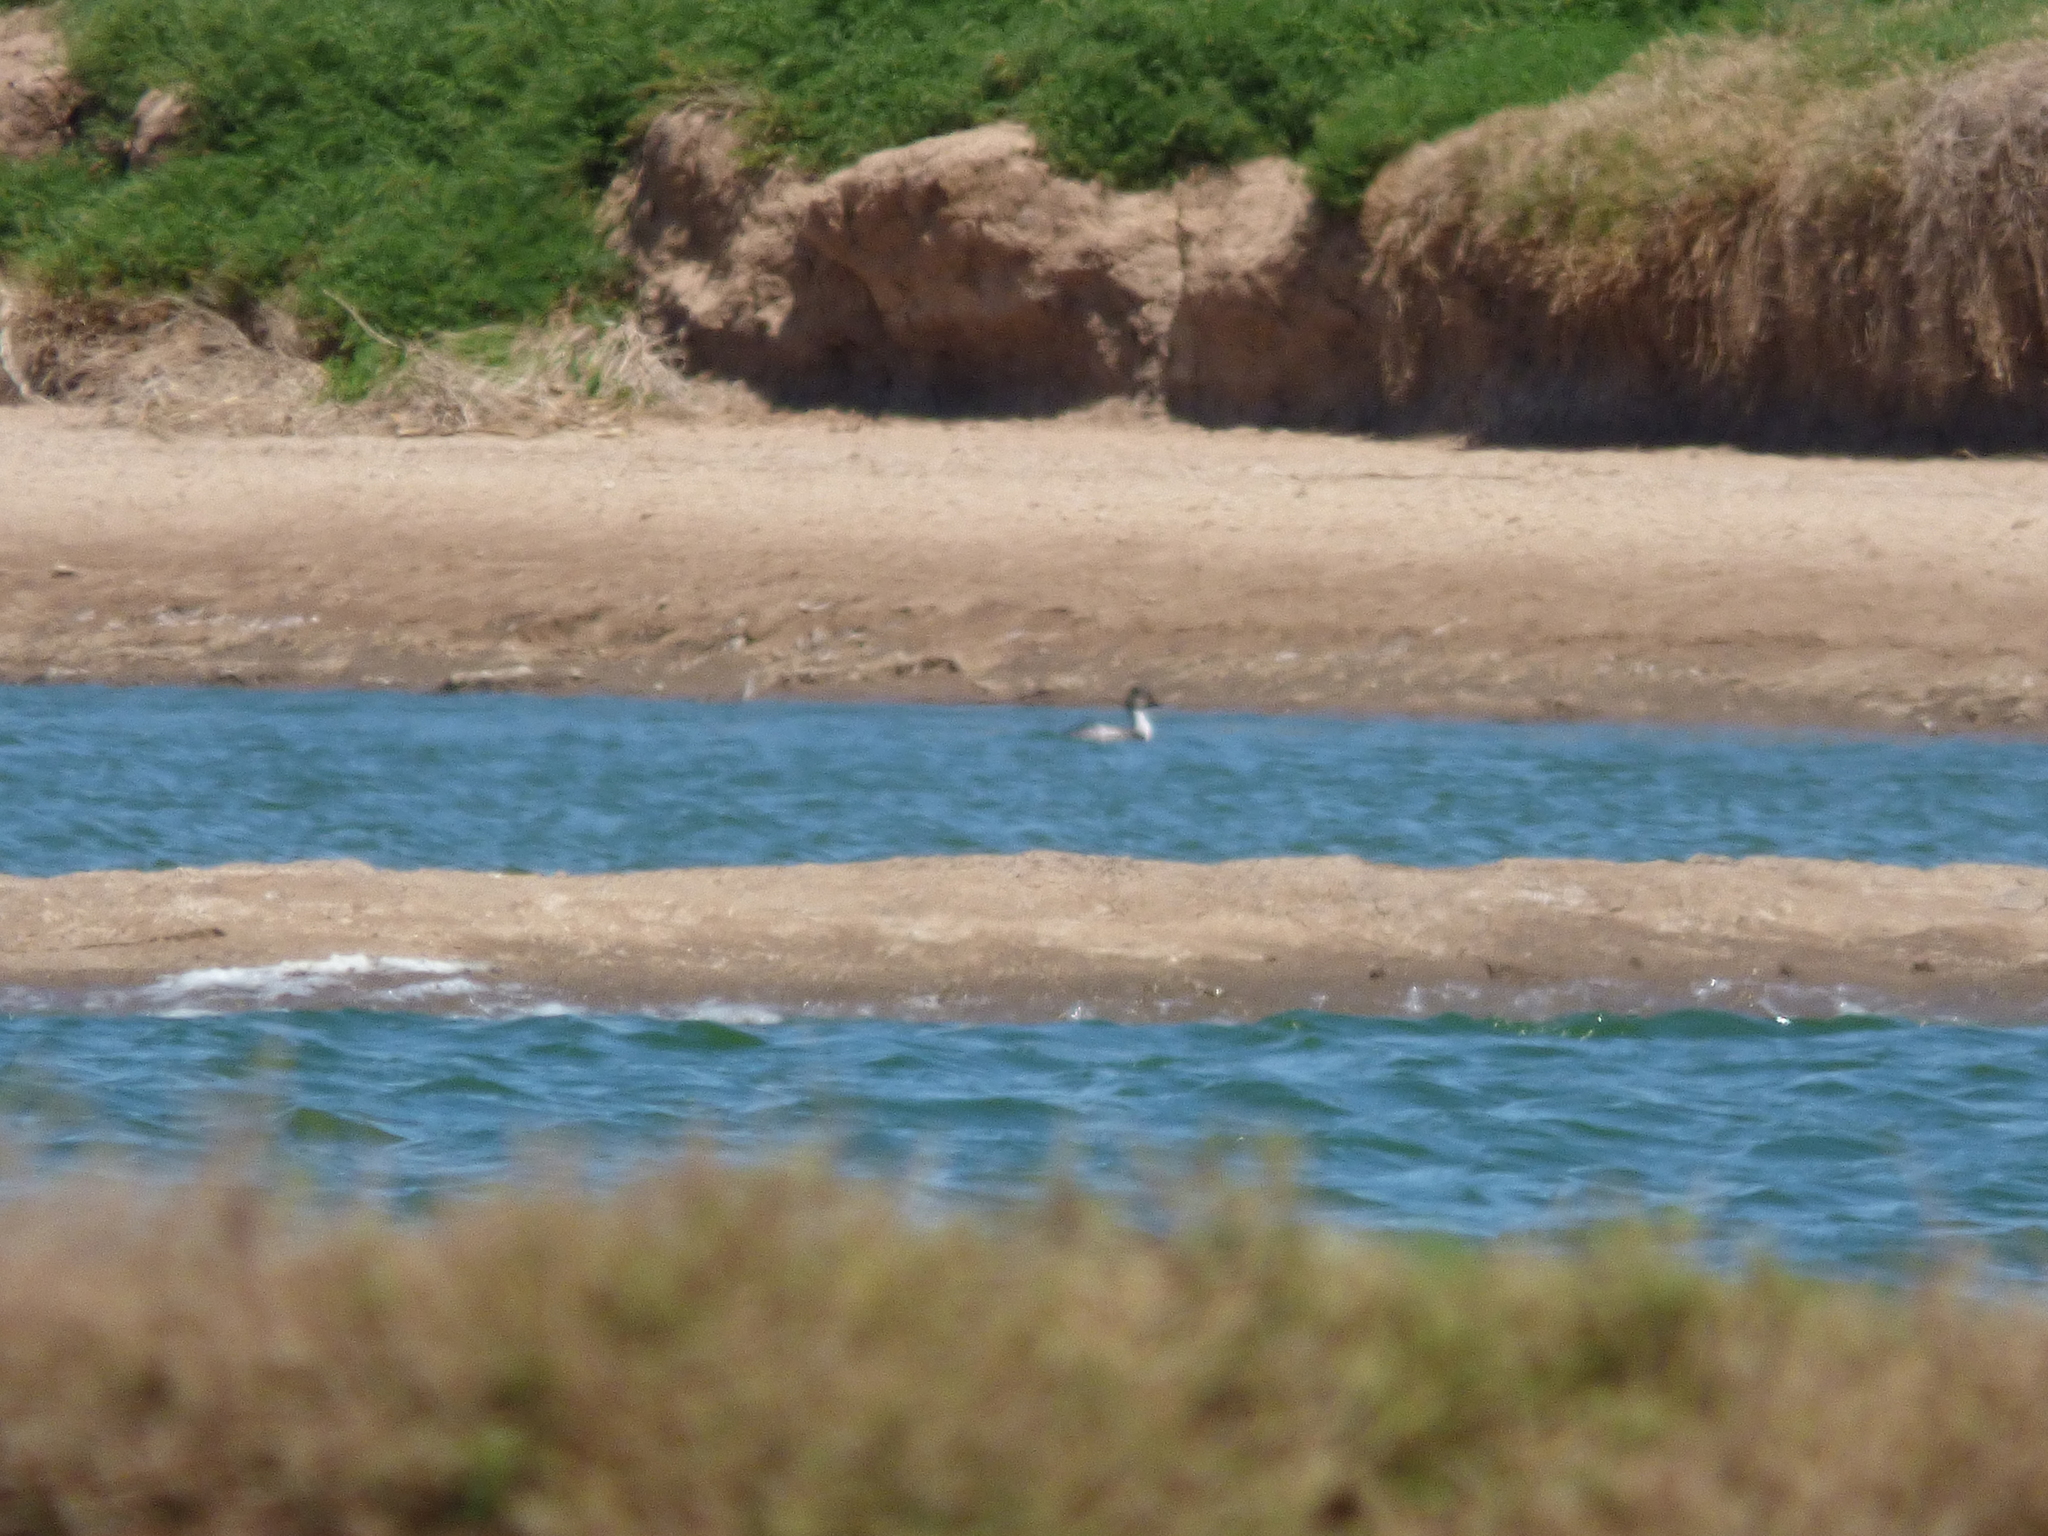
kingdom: Animalia
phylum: Chordata
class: Aves
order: Podicipediformes
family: Podicipedidae
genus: Podiceps
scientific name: Podiceps occipitalis
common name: Silvery grebe
